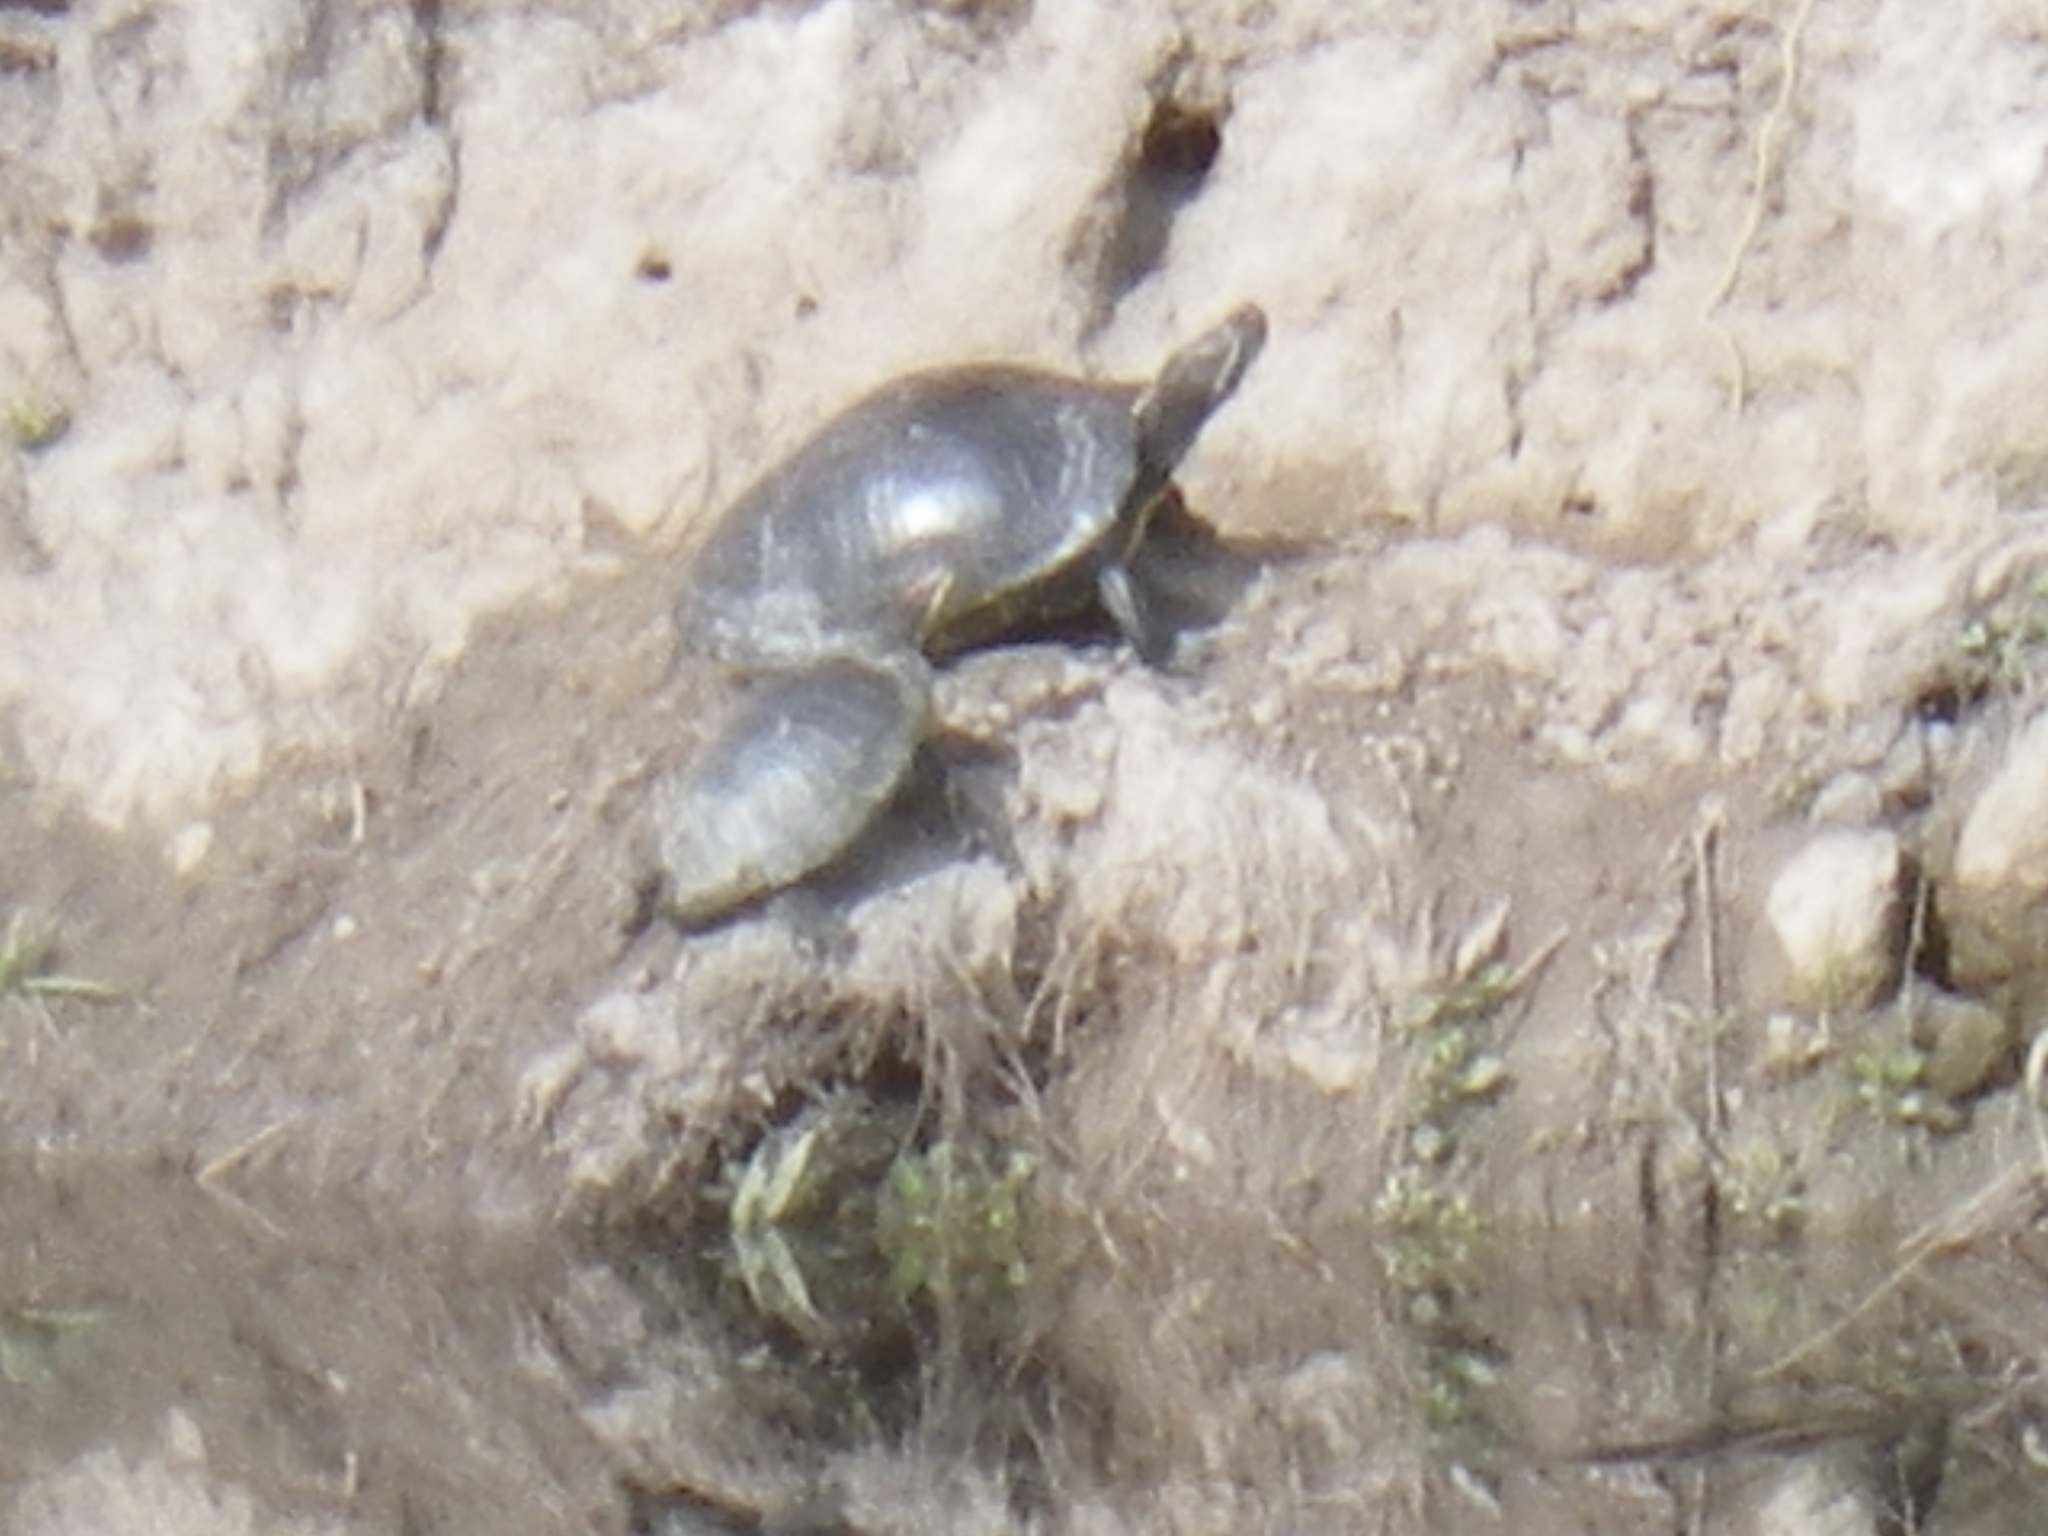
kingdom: Animalia
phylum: Chordata
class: Testudines
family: Emydidae
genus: Trachemys
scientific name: Trachemys scripta
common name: Slider
